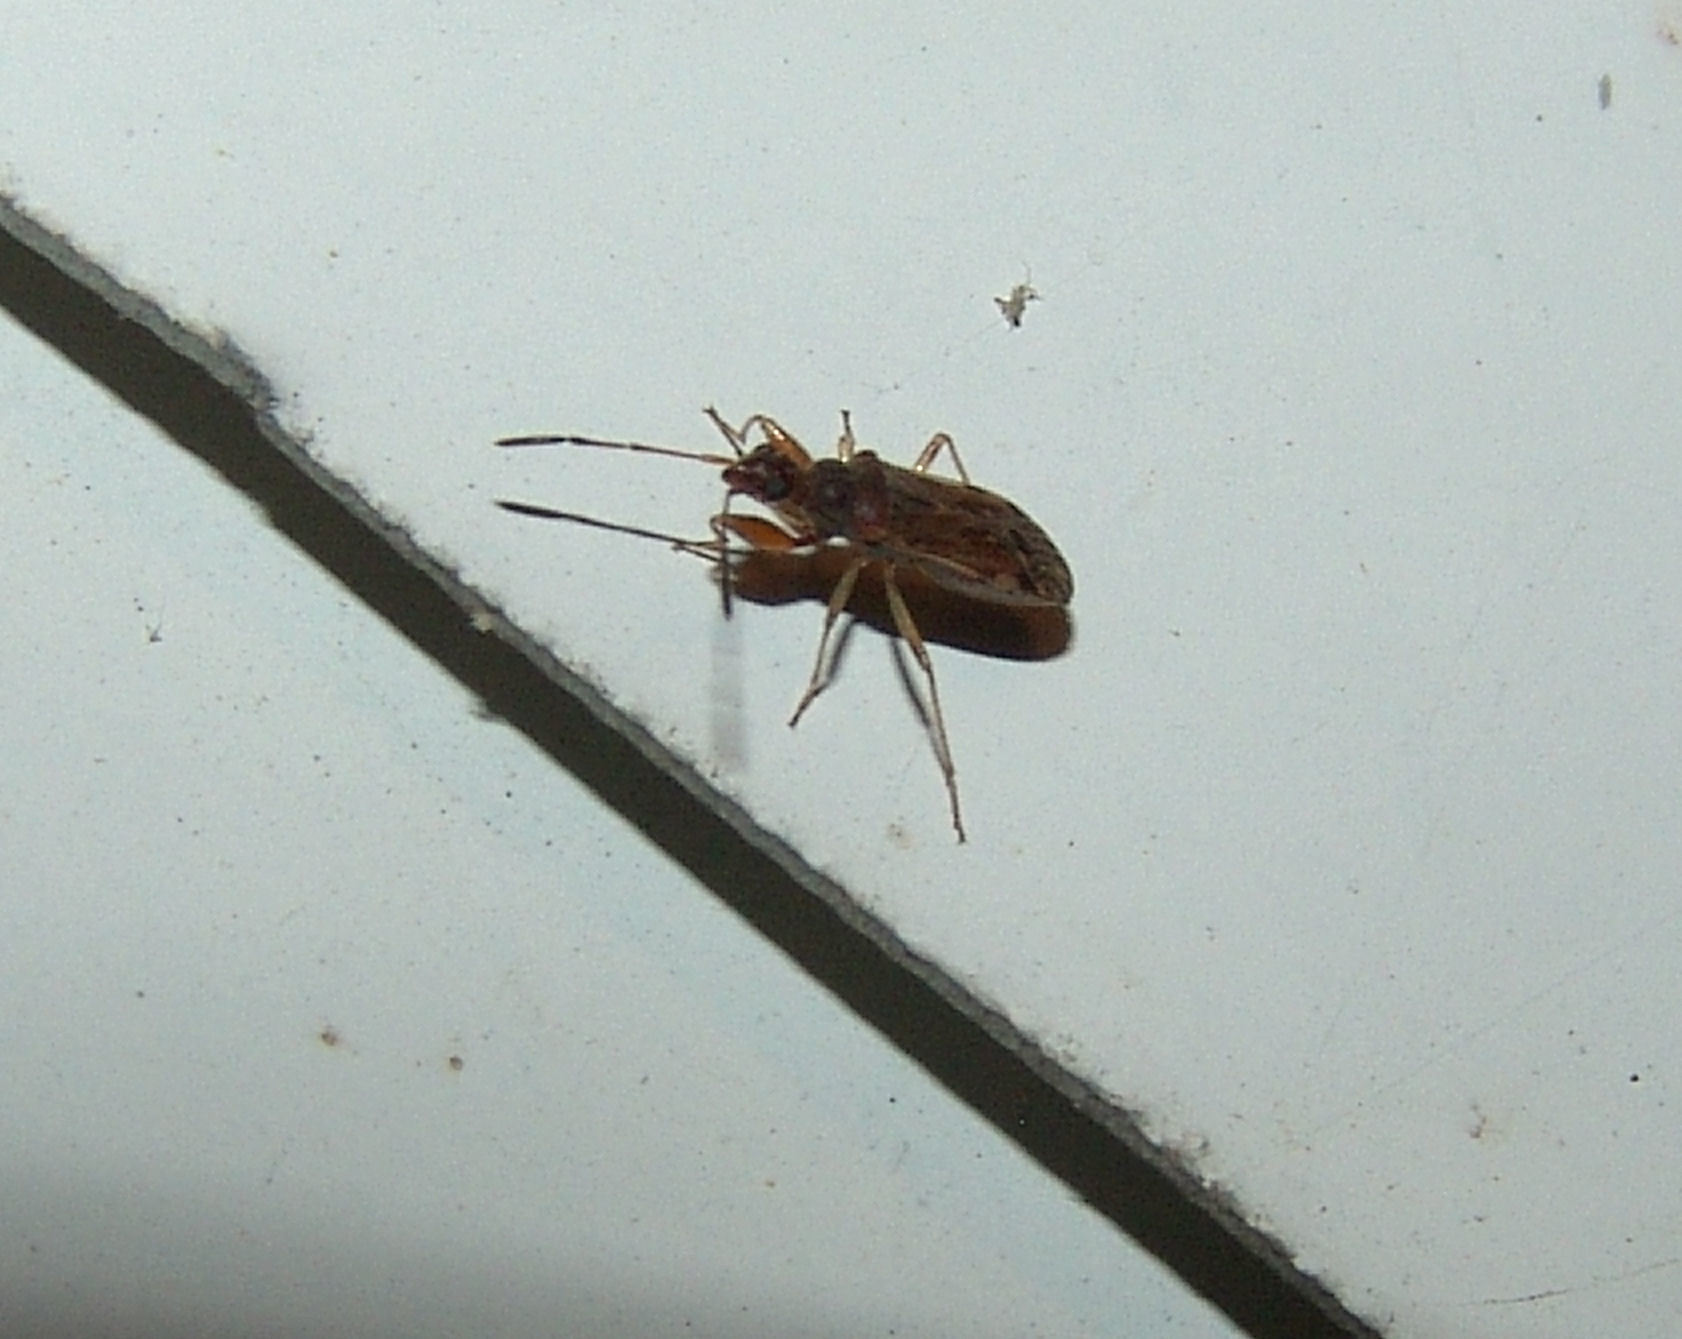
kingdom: Animalia
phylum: Arthropoda
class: Insecta
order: Hemiptera
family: Rhyparochromidae
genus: Heraeus
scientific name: Heraeus plebejus
